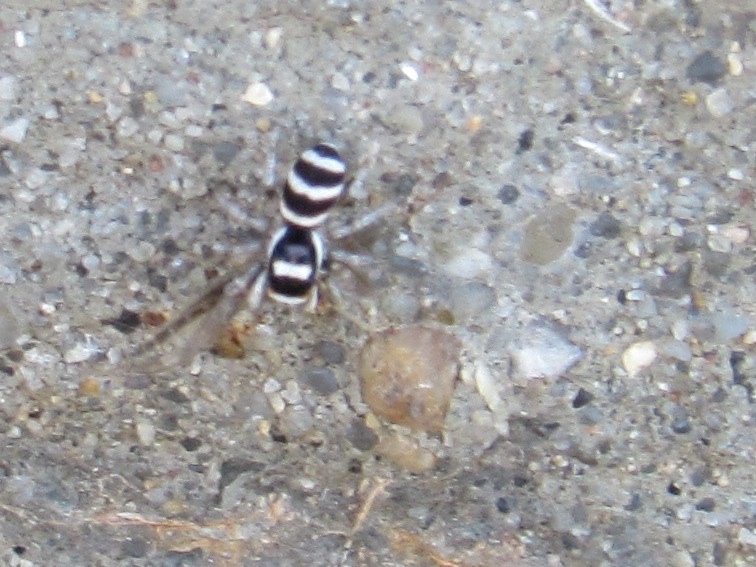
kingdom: Animalia
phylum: Arthropoda
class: Arachnida
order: Araneae
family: Salticidae
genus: Salticus
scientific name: Salticus austinensis
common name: Jumping spiders
